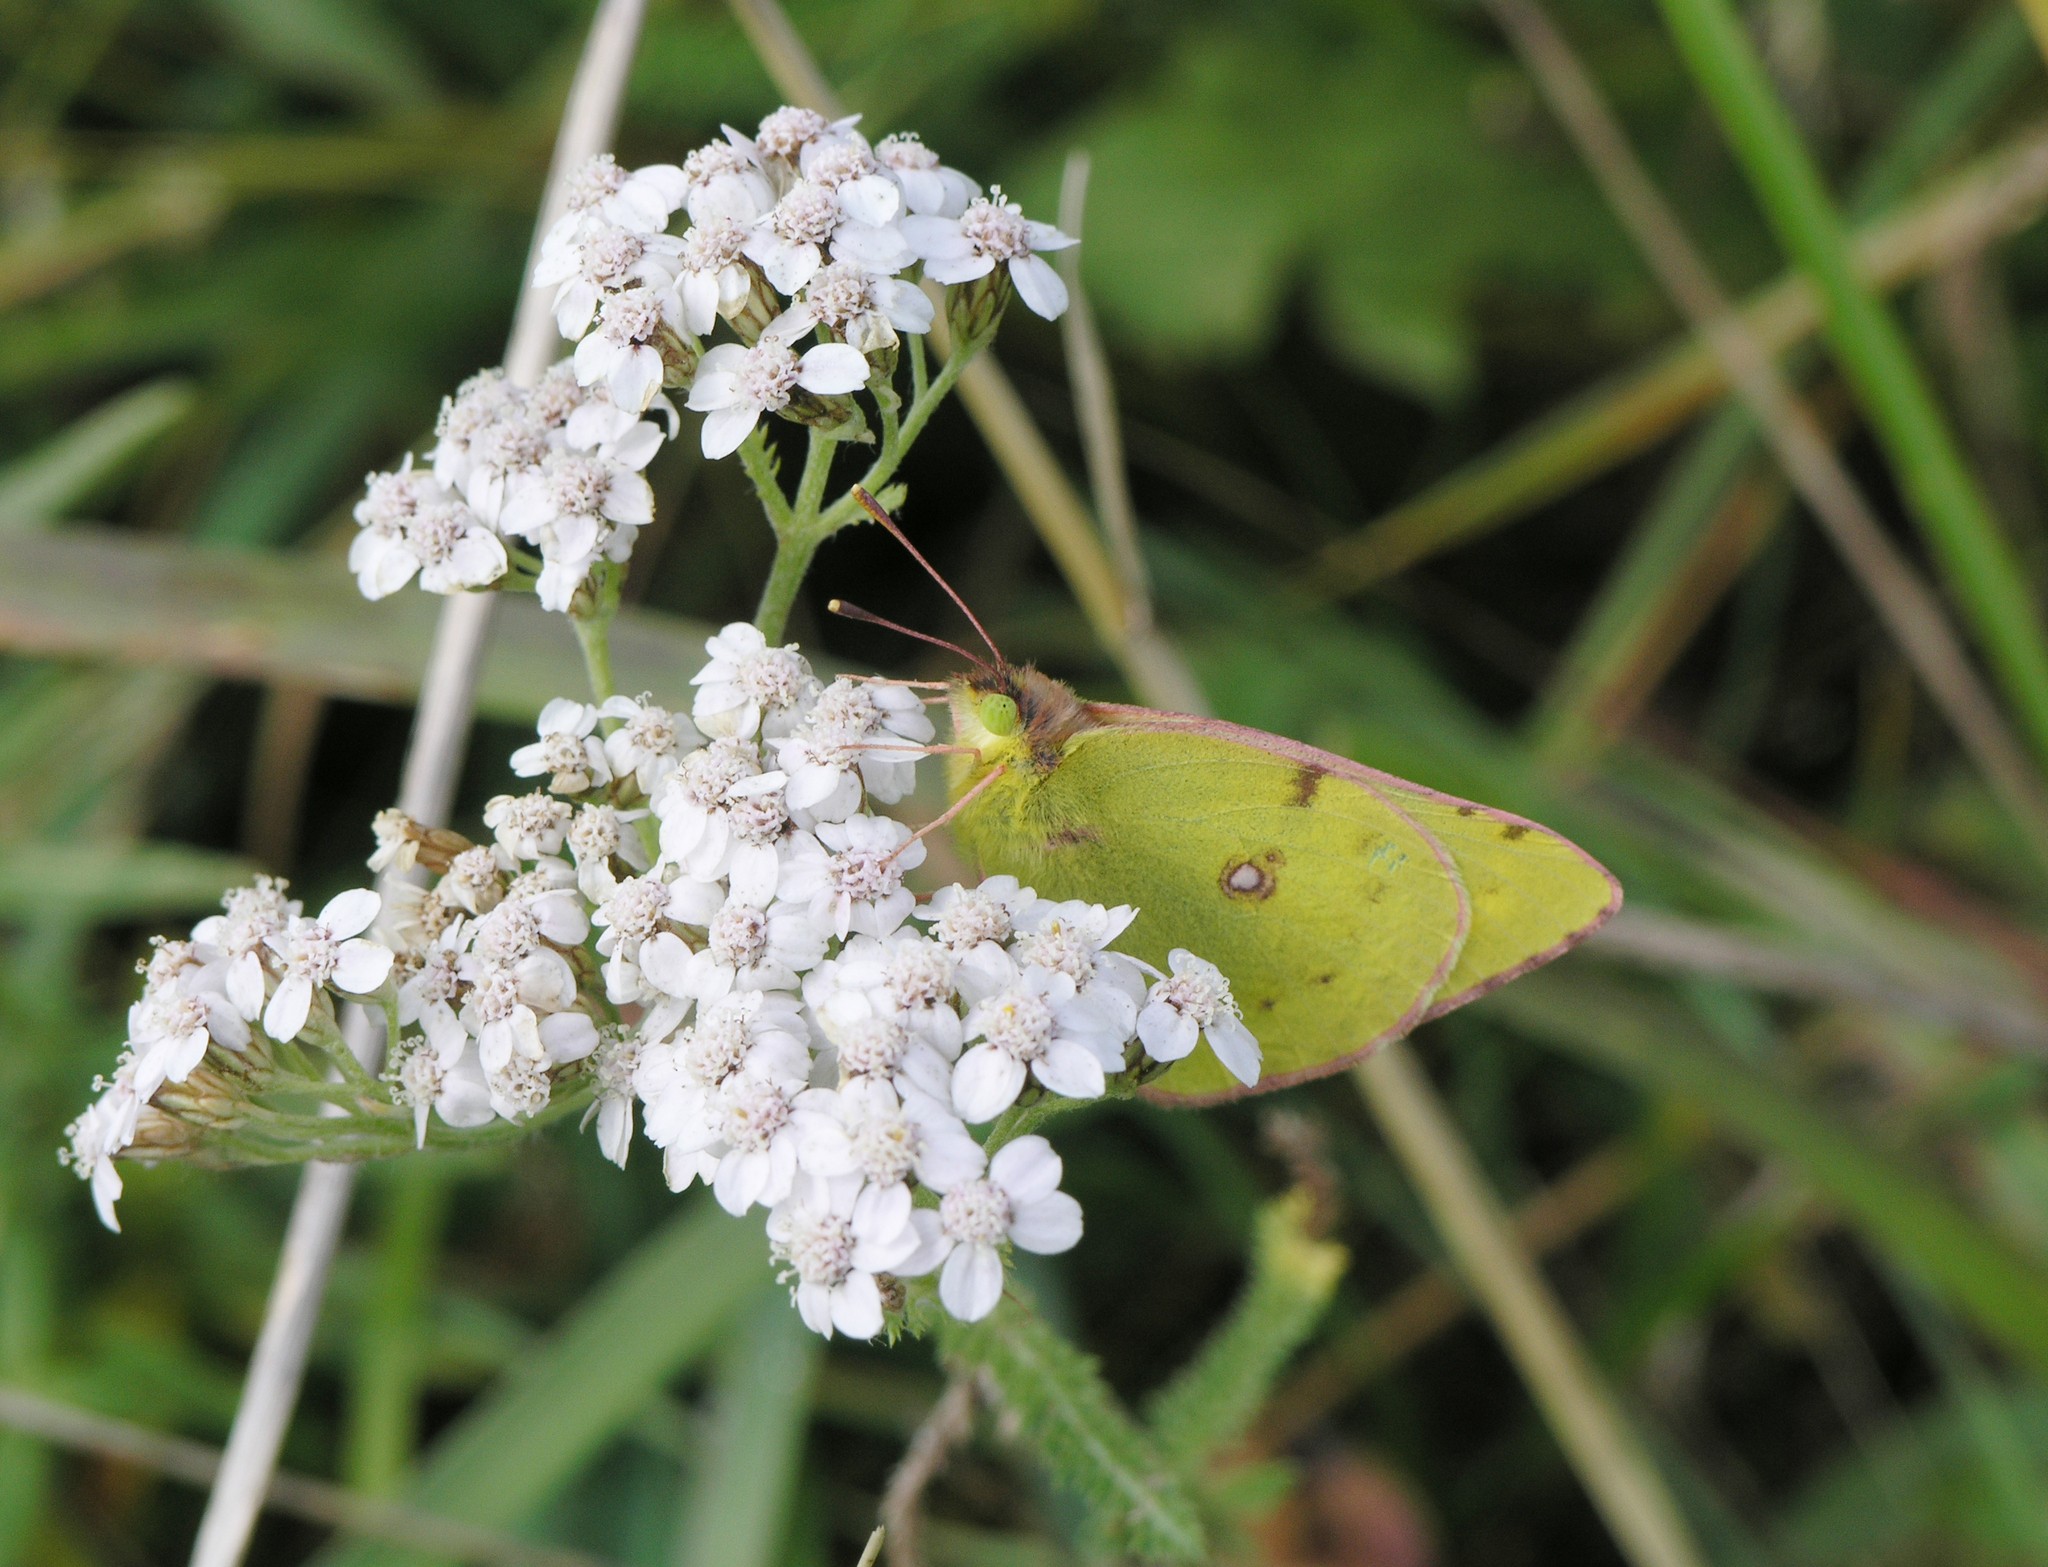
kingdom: Animalia
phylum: Arthropoda
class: Insecta
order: Lepidoptera
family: Pieridae
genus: Colias
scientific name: Colias hyale
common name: Pale clouded yellow
